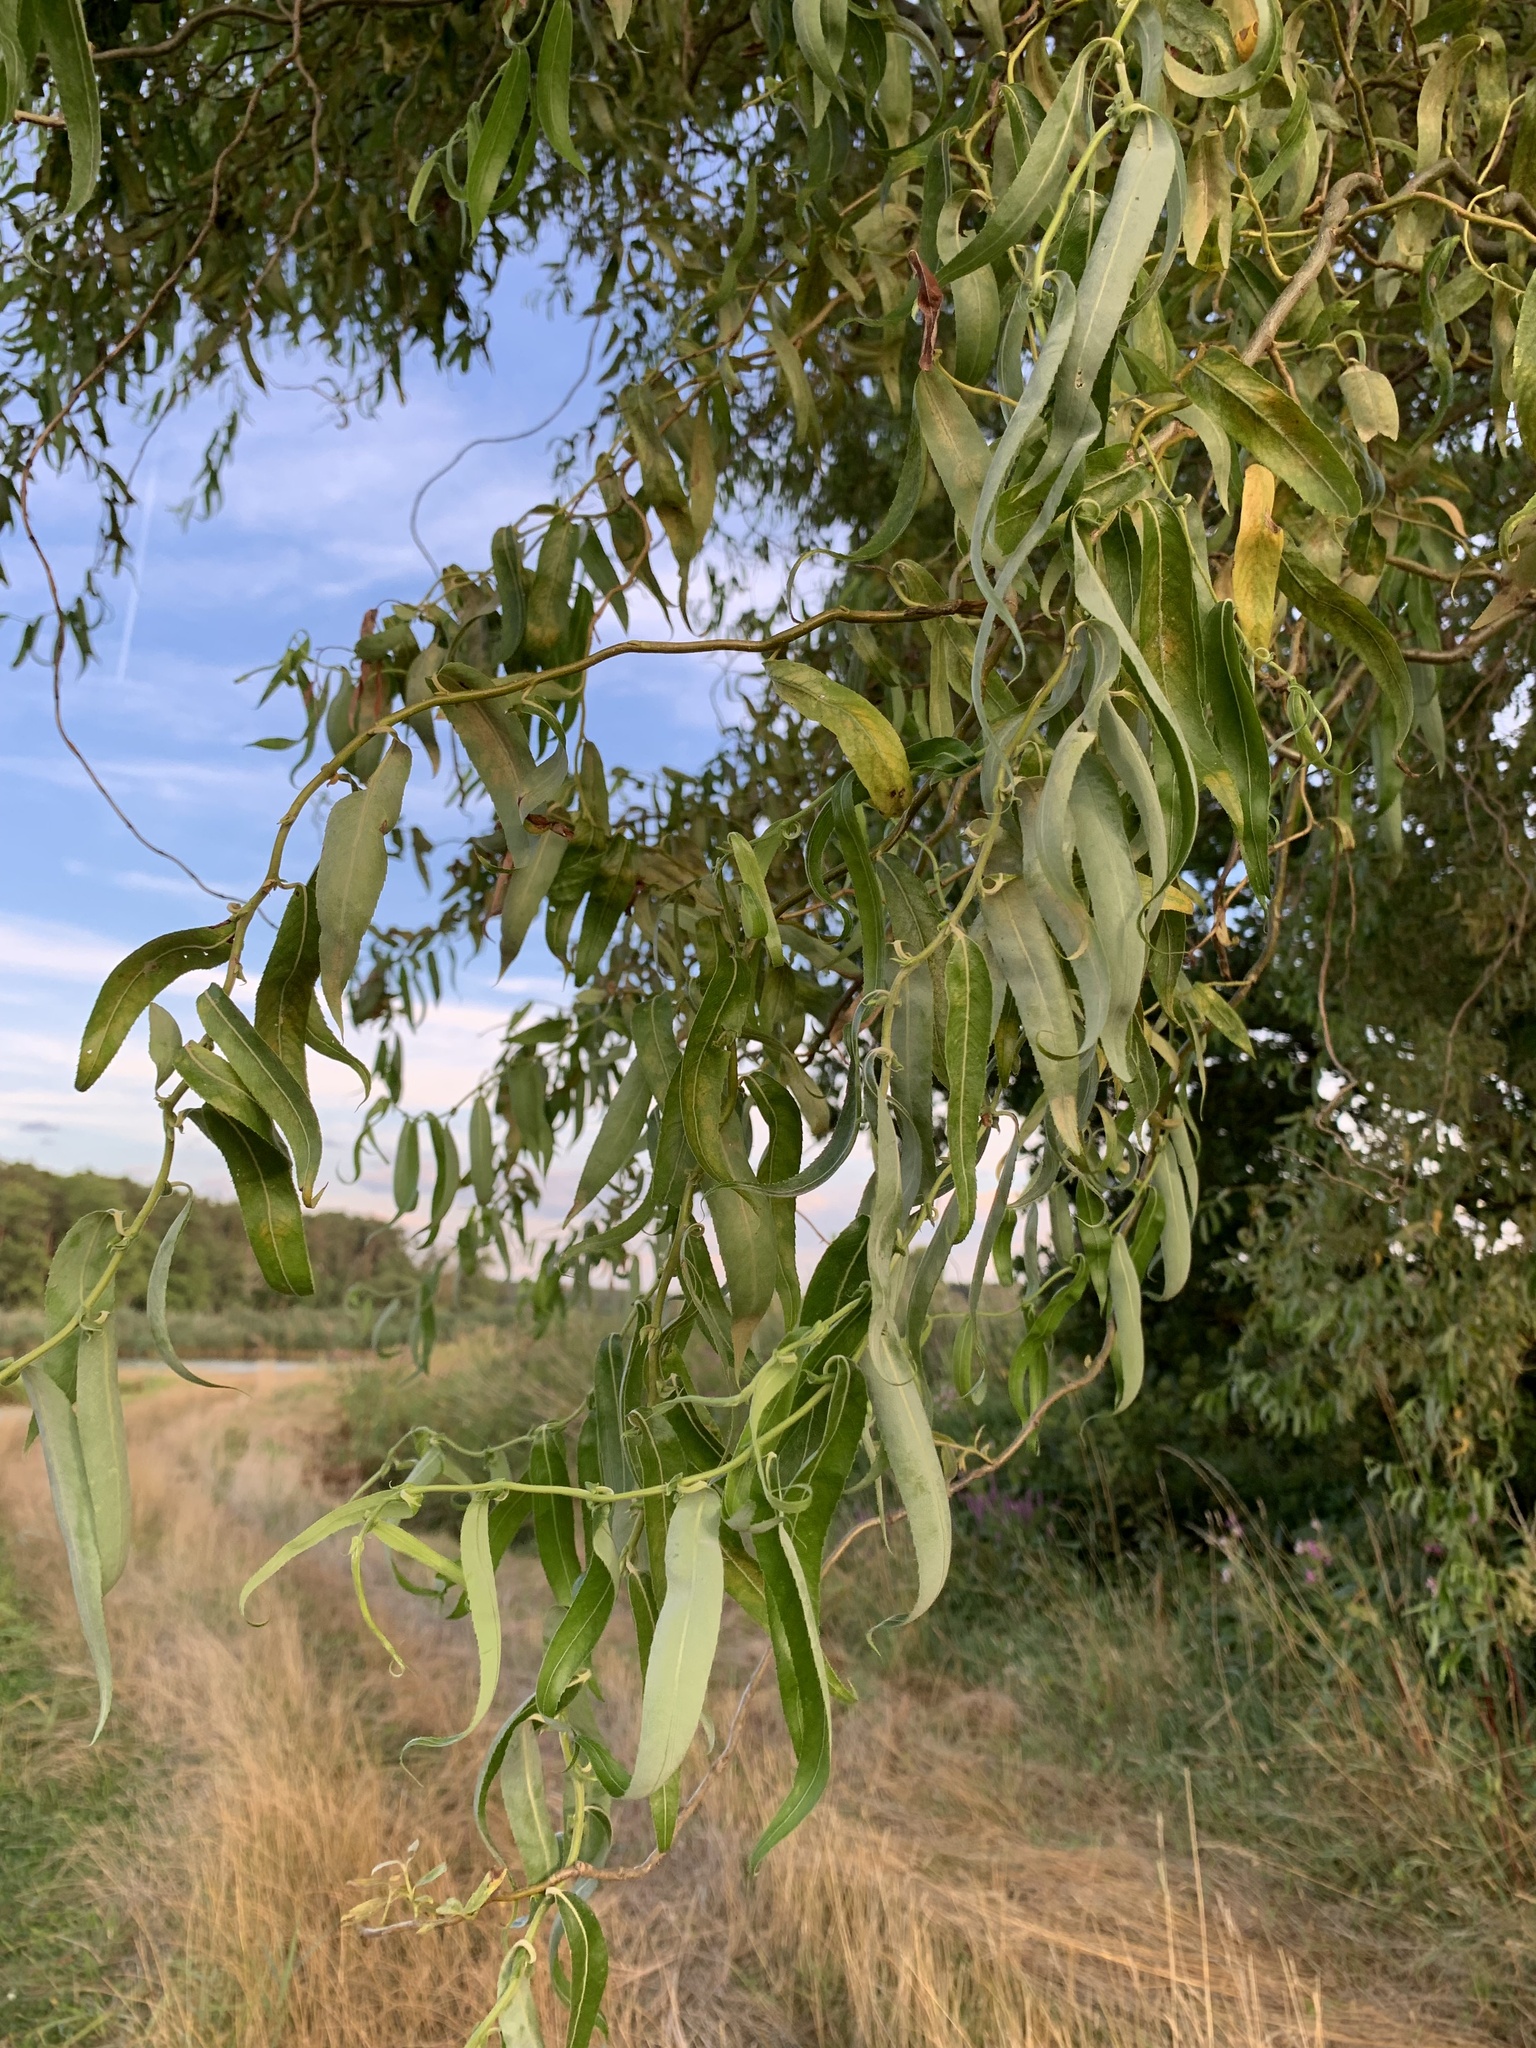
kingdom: Plantae
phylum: Tracheophyta
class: Magnoliopsida
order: Malpighiales
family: Salicaceae
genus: Salix
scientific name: Salix
